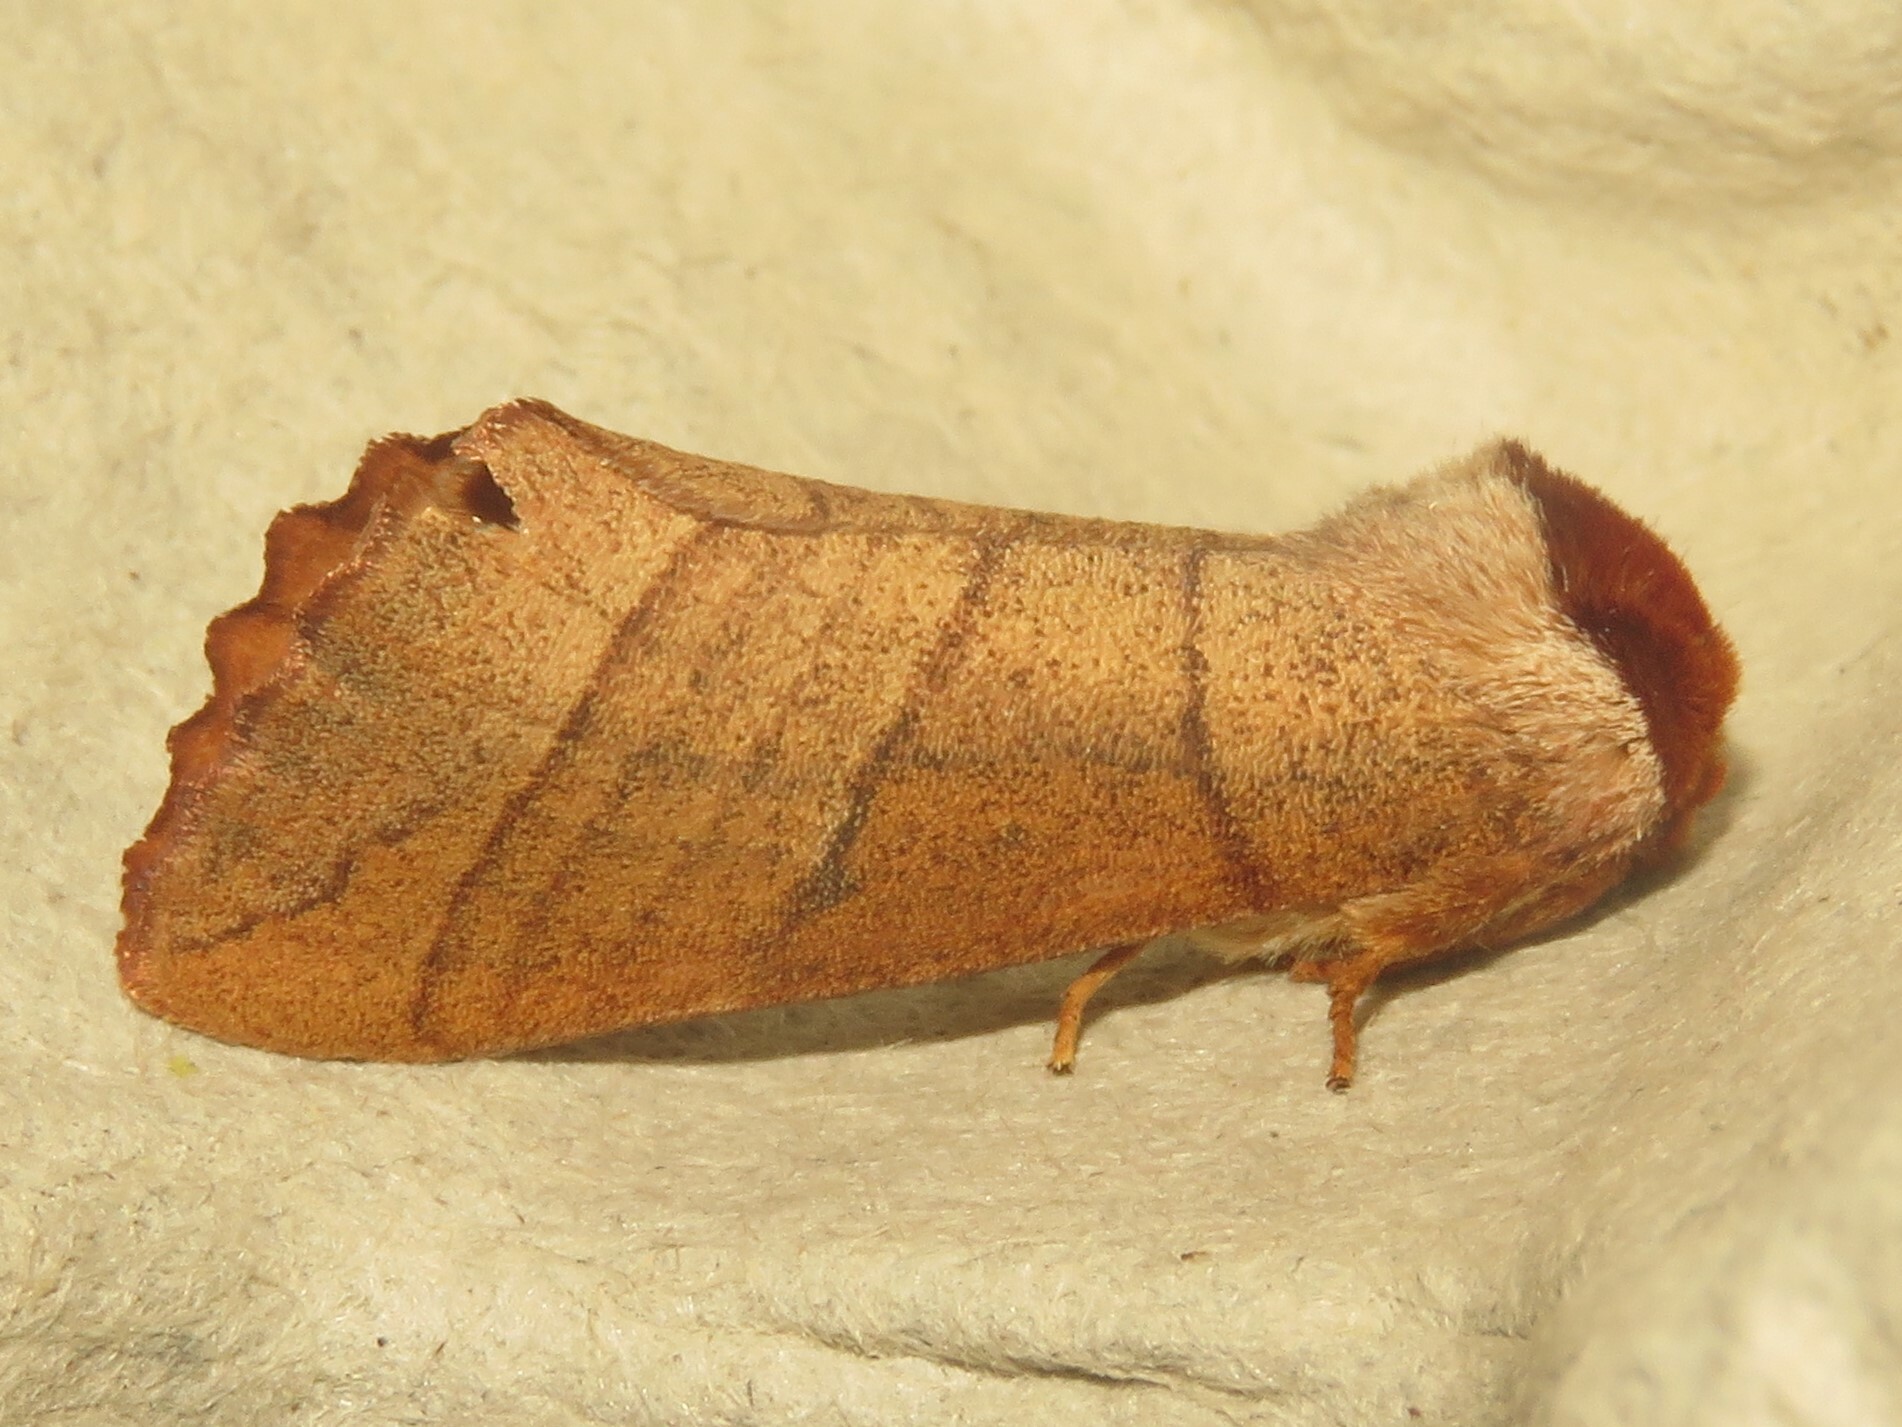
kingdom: Animalia
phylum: Arthropoda
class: Insecta
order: Lepidoptera
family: Notodontidae
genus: Datana
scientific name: Datana ministra
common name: Yellow-necked caterpillar moth
